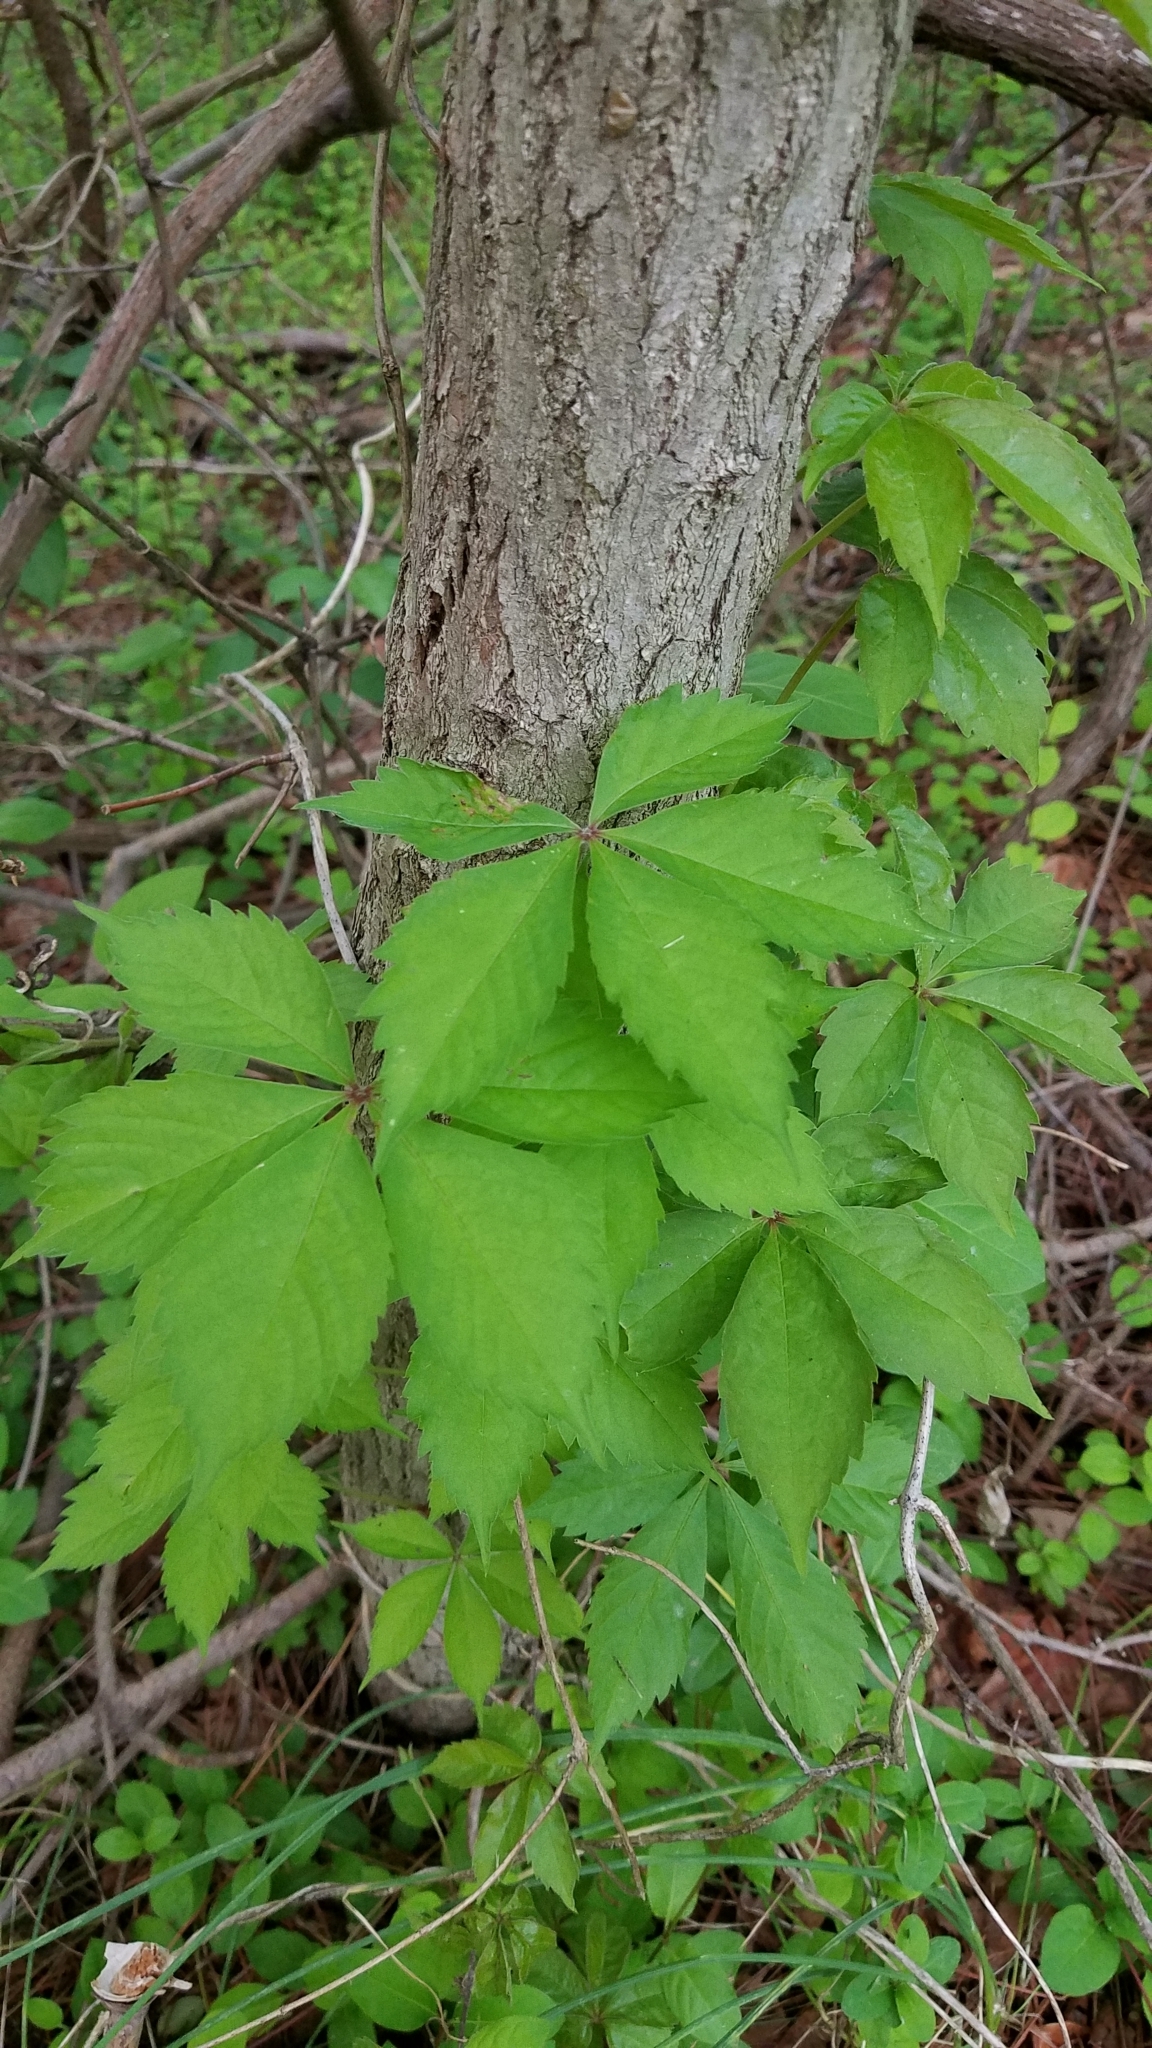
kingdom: Plantae
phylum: Tracheophyta
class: Magnoliopsida
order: Vitales
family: Vitaceae
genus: Parthenocissus
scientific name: Parthenocissus quinquefolia
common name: Virginia-creeper
